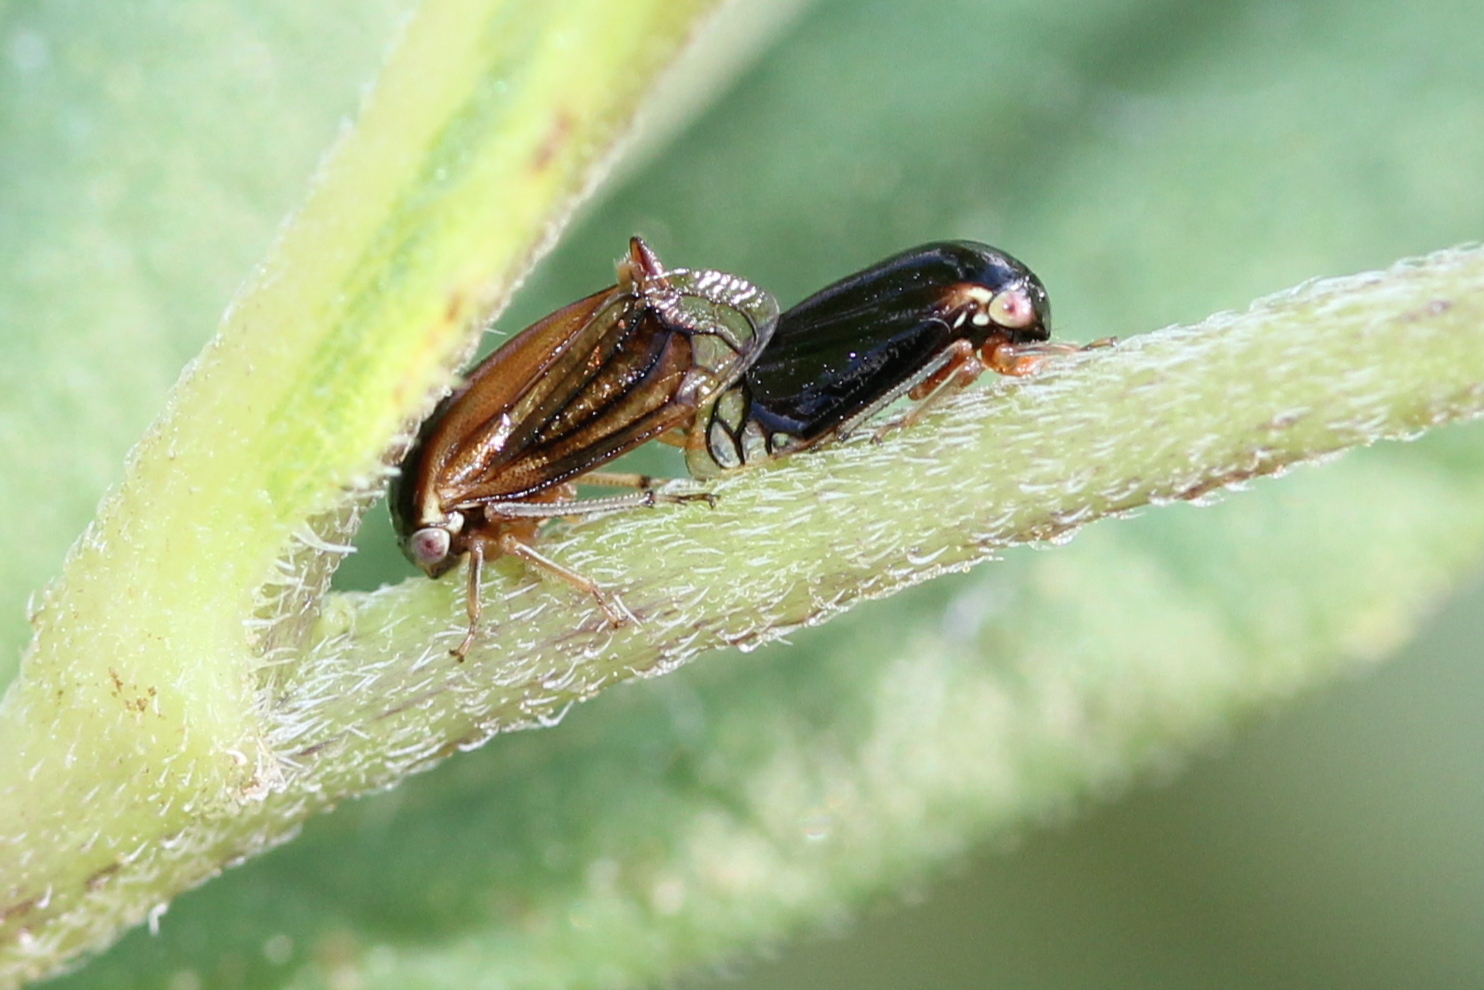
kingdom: Animalia
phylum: Arthropoda
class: Insecta
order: Hemiptera
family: Membracidae
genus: Acutalis
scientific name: Acutalis tartarea
